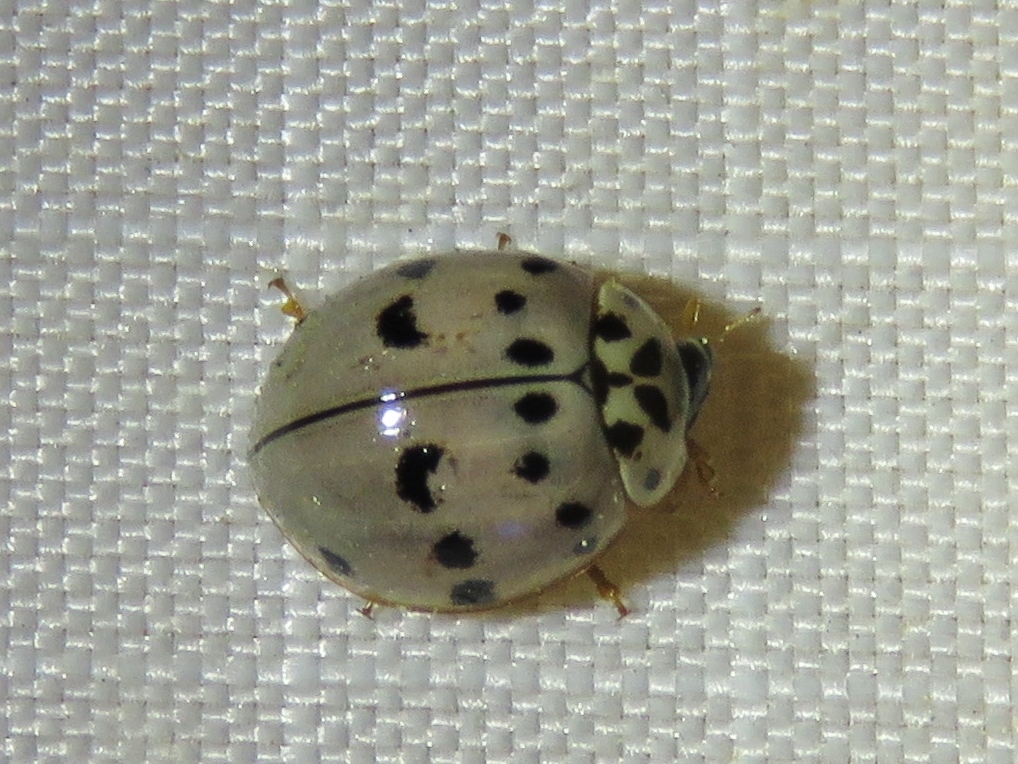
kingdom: Animalia
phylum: Arthropoda
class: Insecta
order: Coleoptera
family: Coccinellidae
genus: Olla
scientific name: Olla v-nigrum
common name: Ashy gray lady beetle
